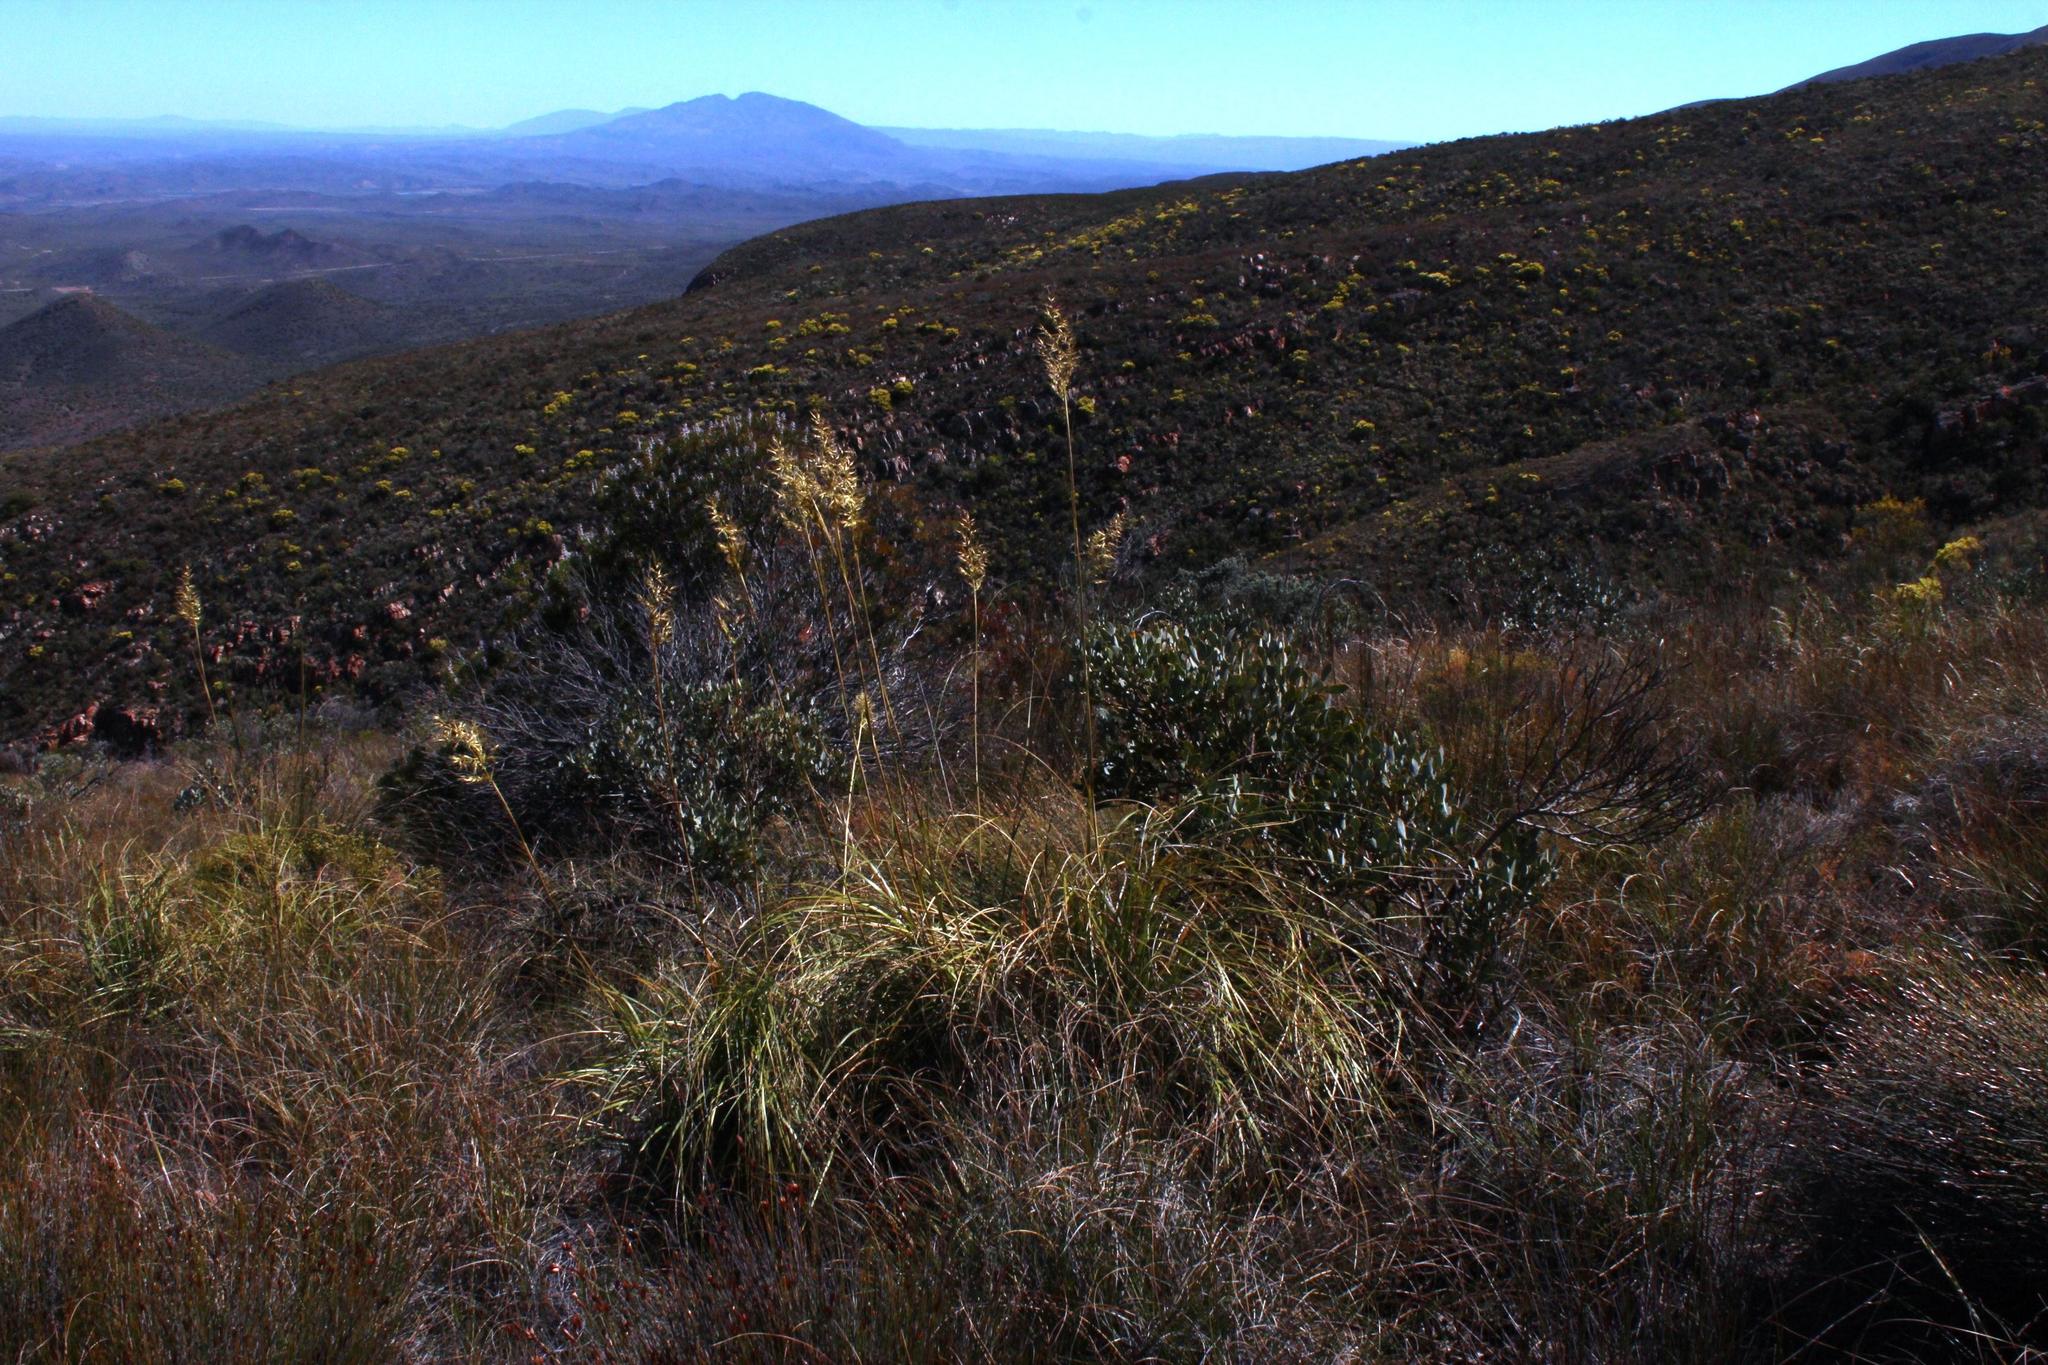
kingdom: Plantae
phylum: Tracheophyta
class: Liliopsida
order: Poales
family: Poaceae
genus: Capeochloa
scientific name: Capeochloa arundinacea
